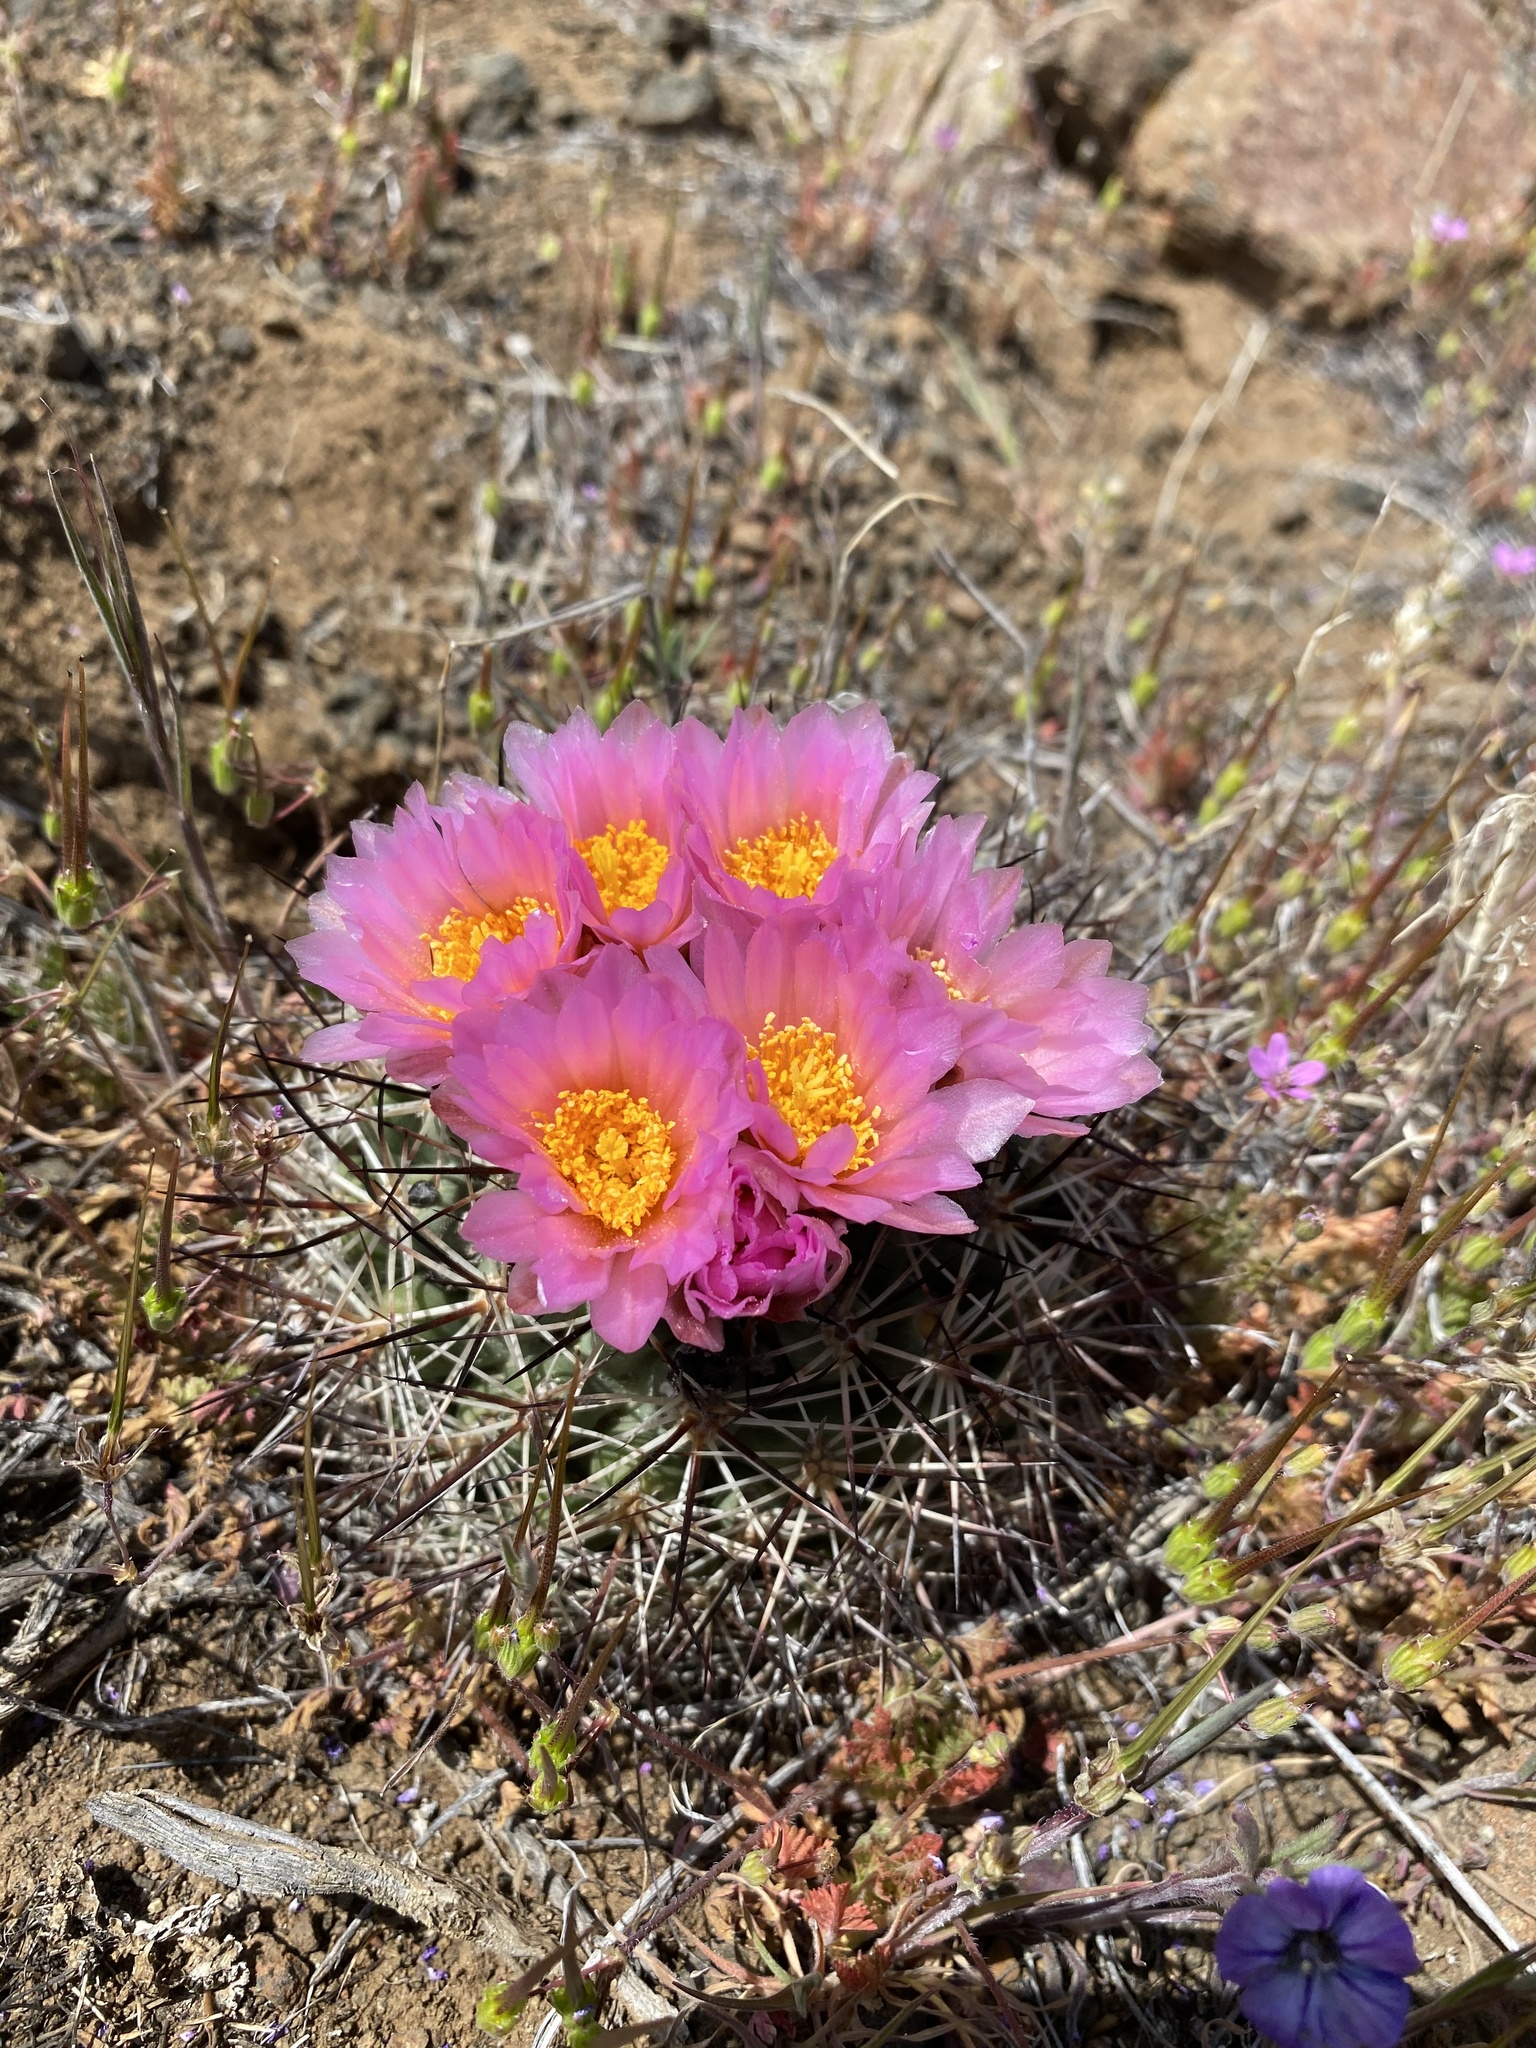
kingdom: Plantae
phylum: Tracheophyta
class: Magnoliopsida
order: Caryophyllales
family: Cactaceae
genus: Pediocactus
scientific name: Pediocactus nigrispinus
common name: Simpson's hedgehog cactus
